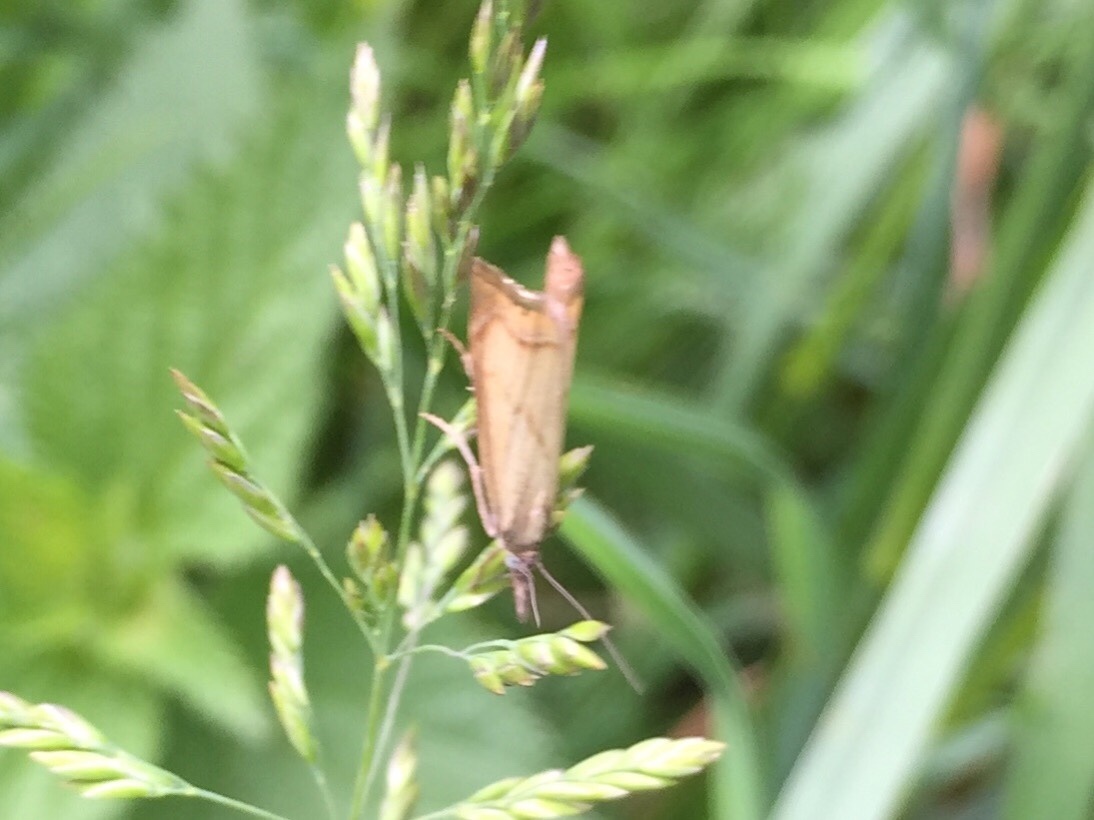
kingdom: Animalia
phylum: Arthropoda
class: Insecta
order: Lepidoptera
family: Crambidae
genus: Chrysoteuchia
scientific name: Chrysoteuchia culmella
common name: Garden grass-veneer
